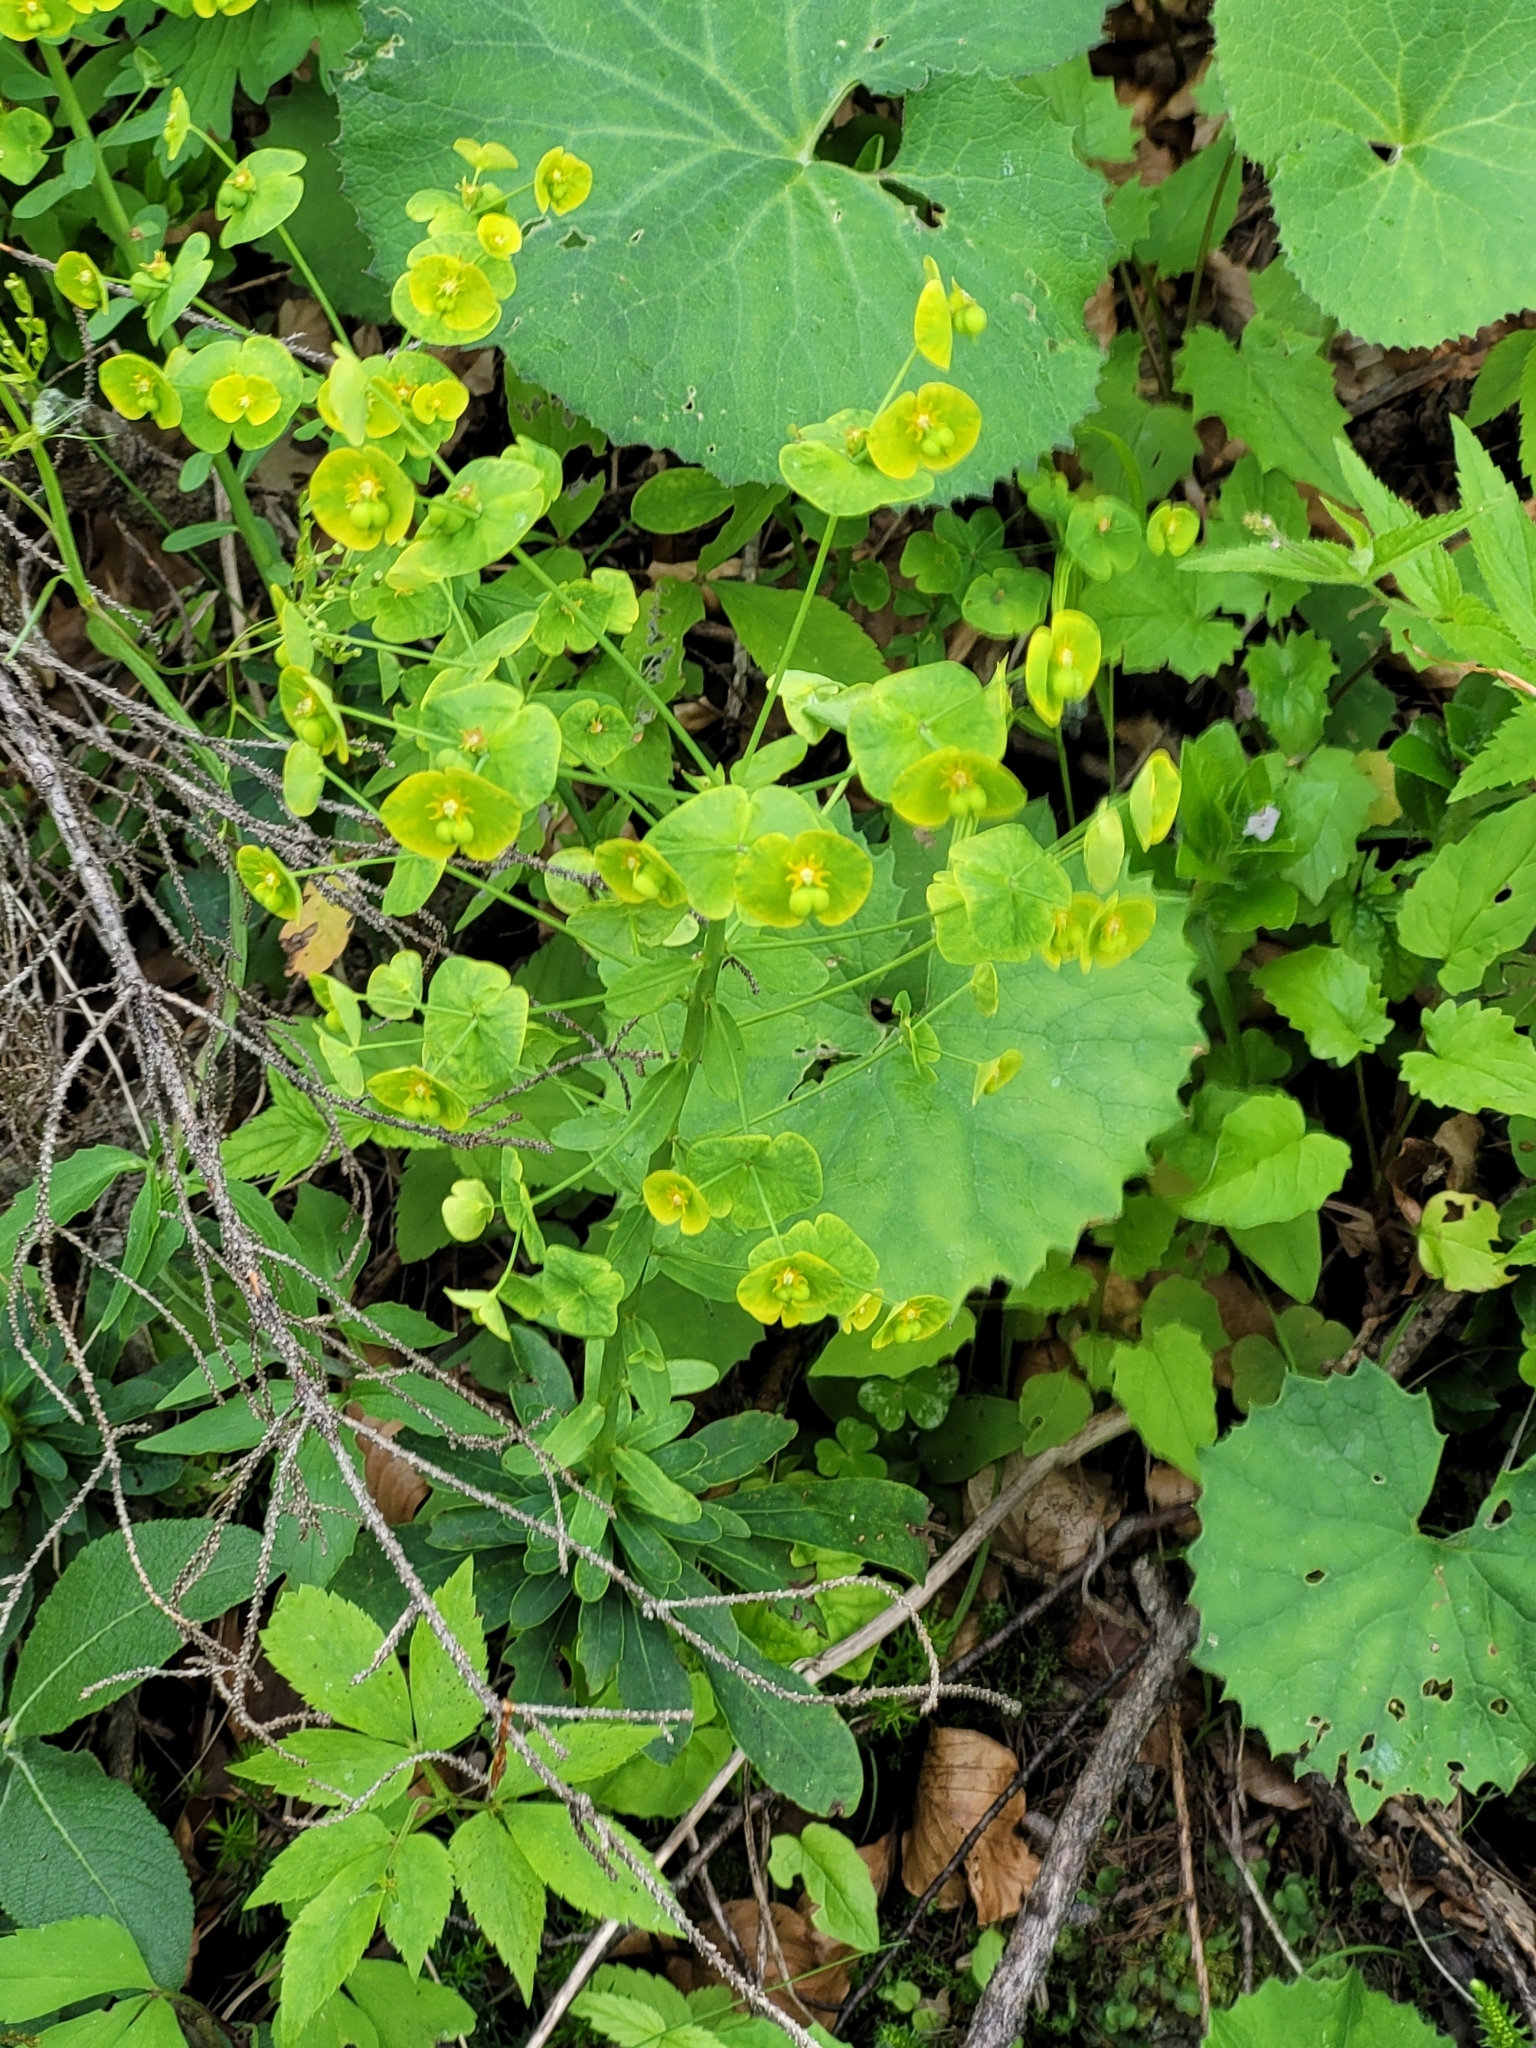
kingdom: Plantae
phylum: Tracheophyta
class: Magnoliopsida
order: Malpighiales
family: Euphorbiaceae
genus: Euphorbia
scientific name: Euphorbia amygdaloides
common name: Wood spurge
